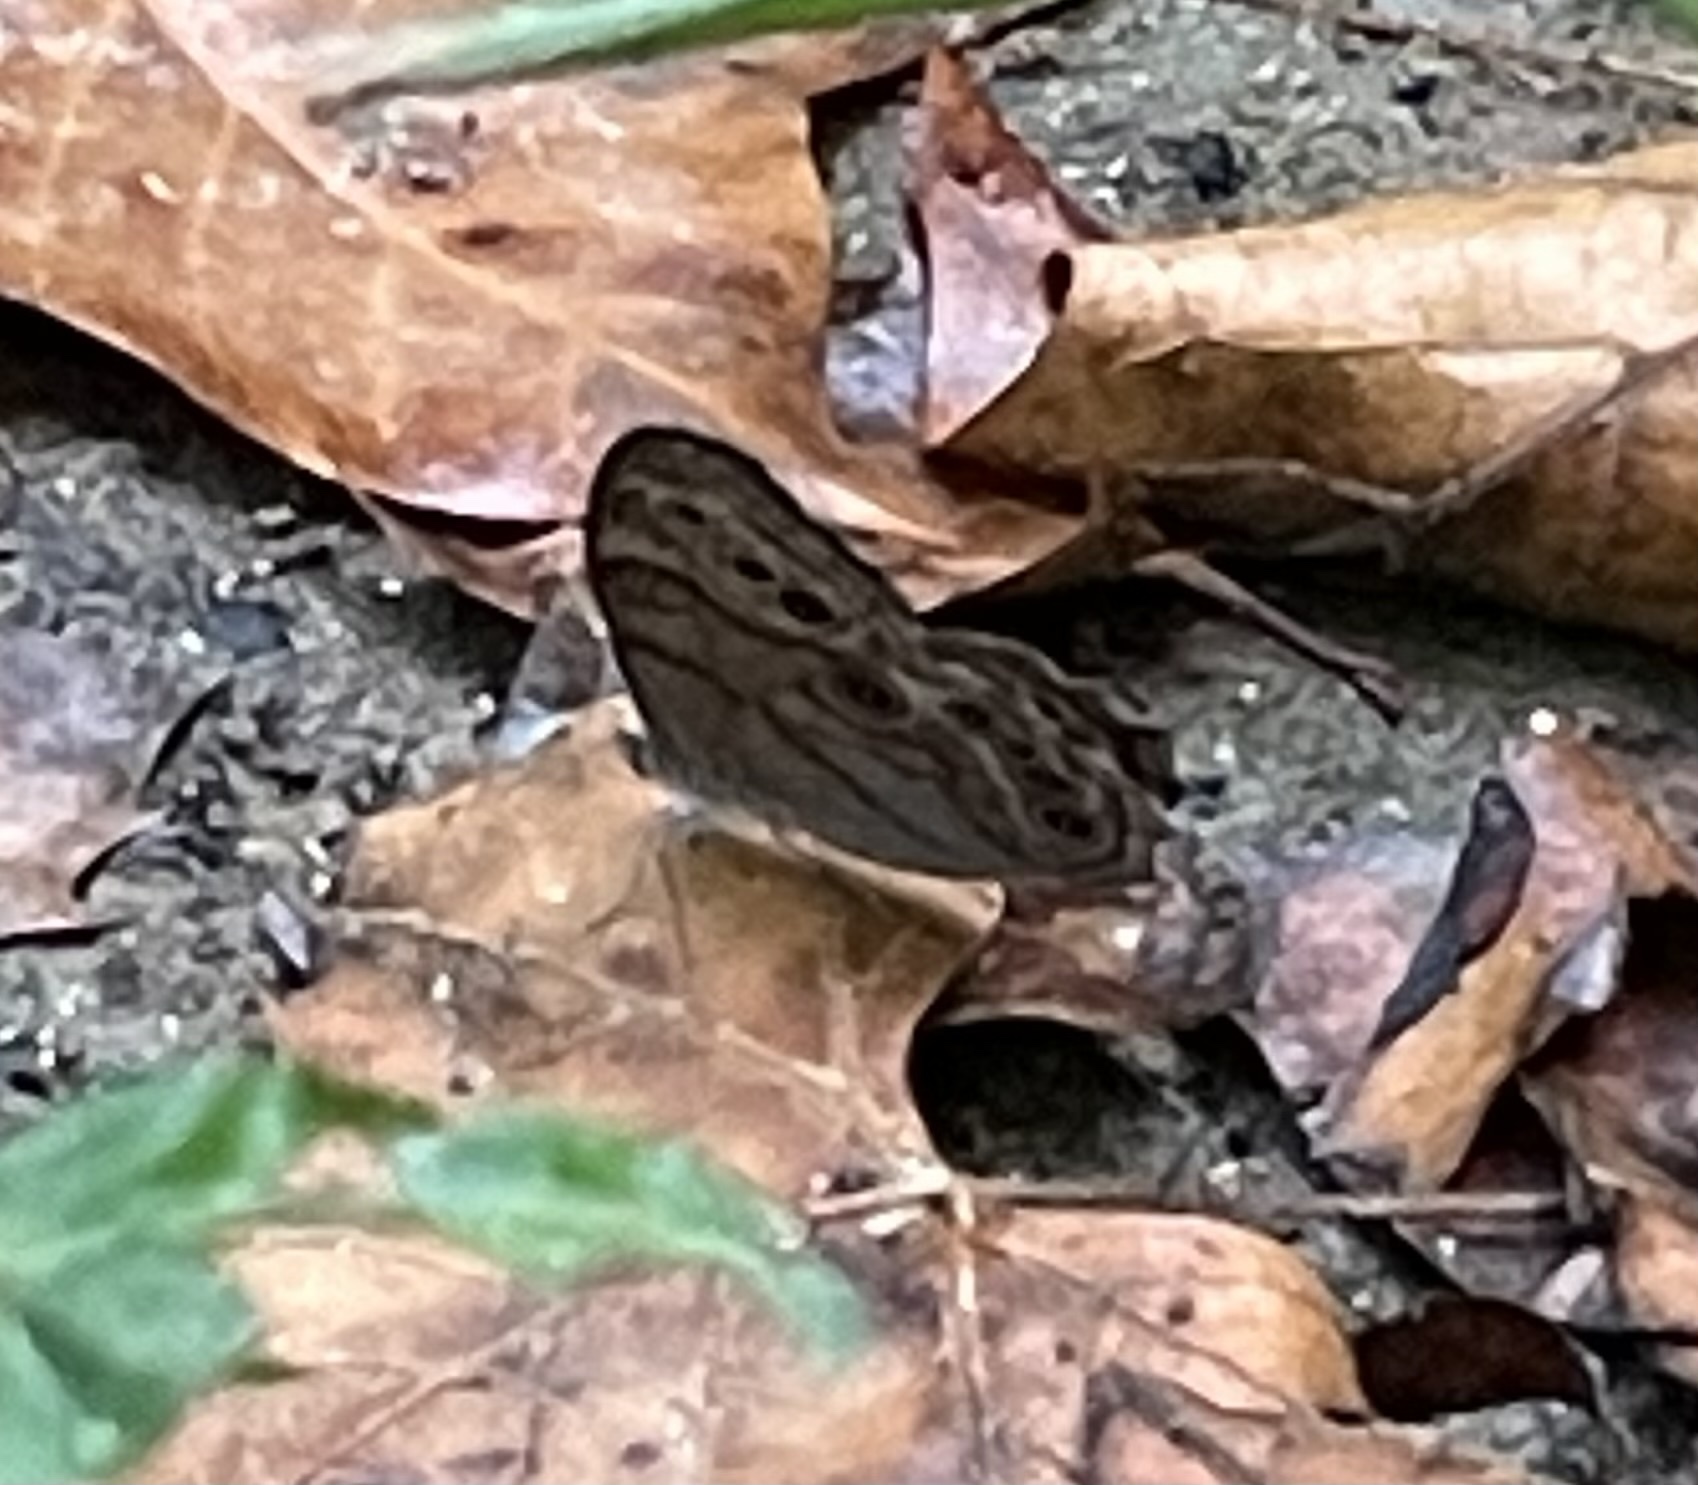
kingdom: Animalia
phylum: Arthropoda
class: Insecta
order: Lepidoptera
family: Nymphalidae
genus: Lethe
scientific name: Lethe anthedon
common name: Northern pearly-eye
